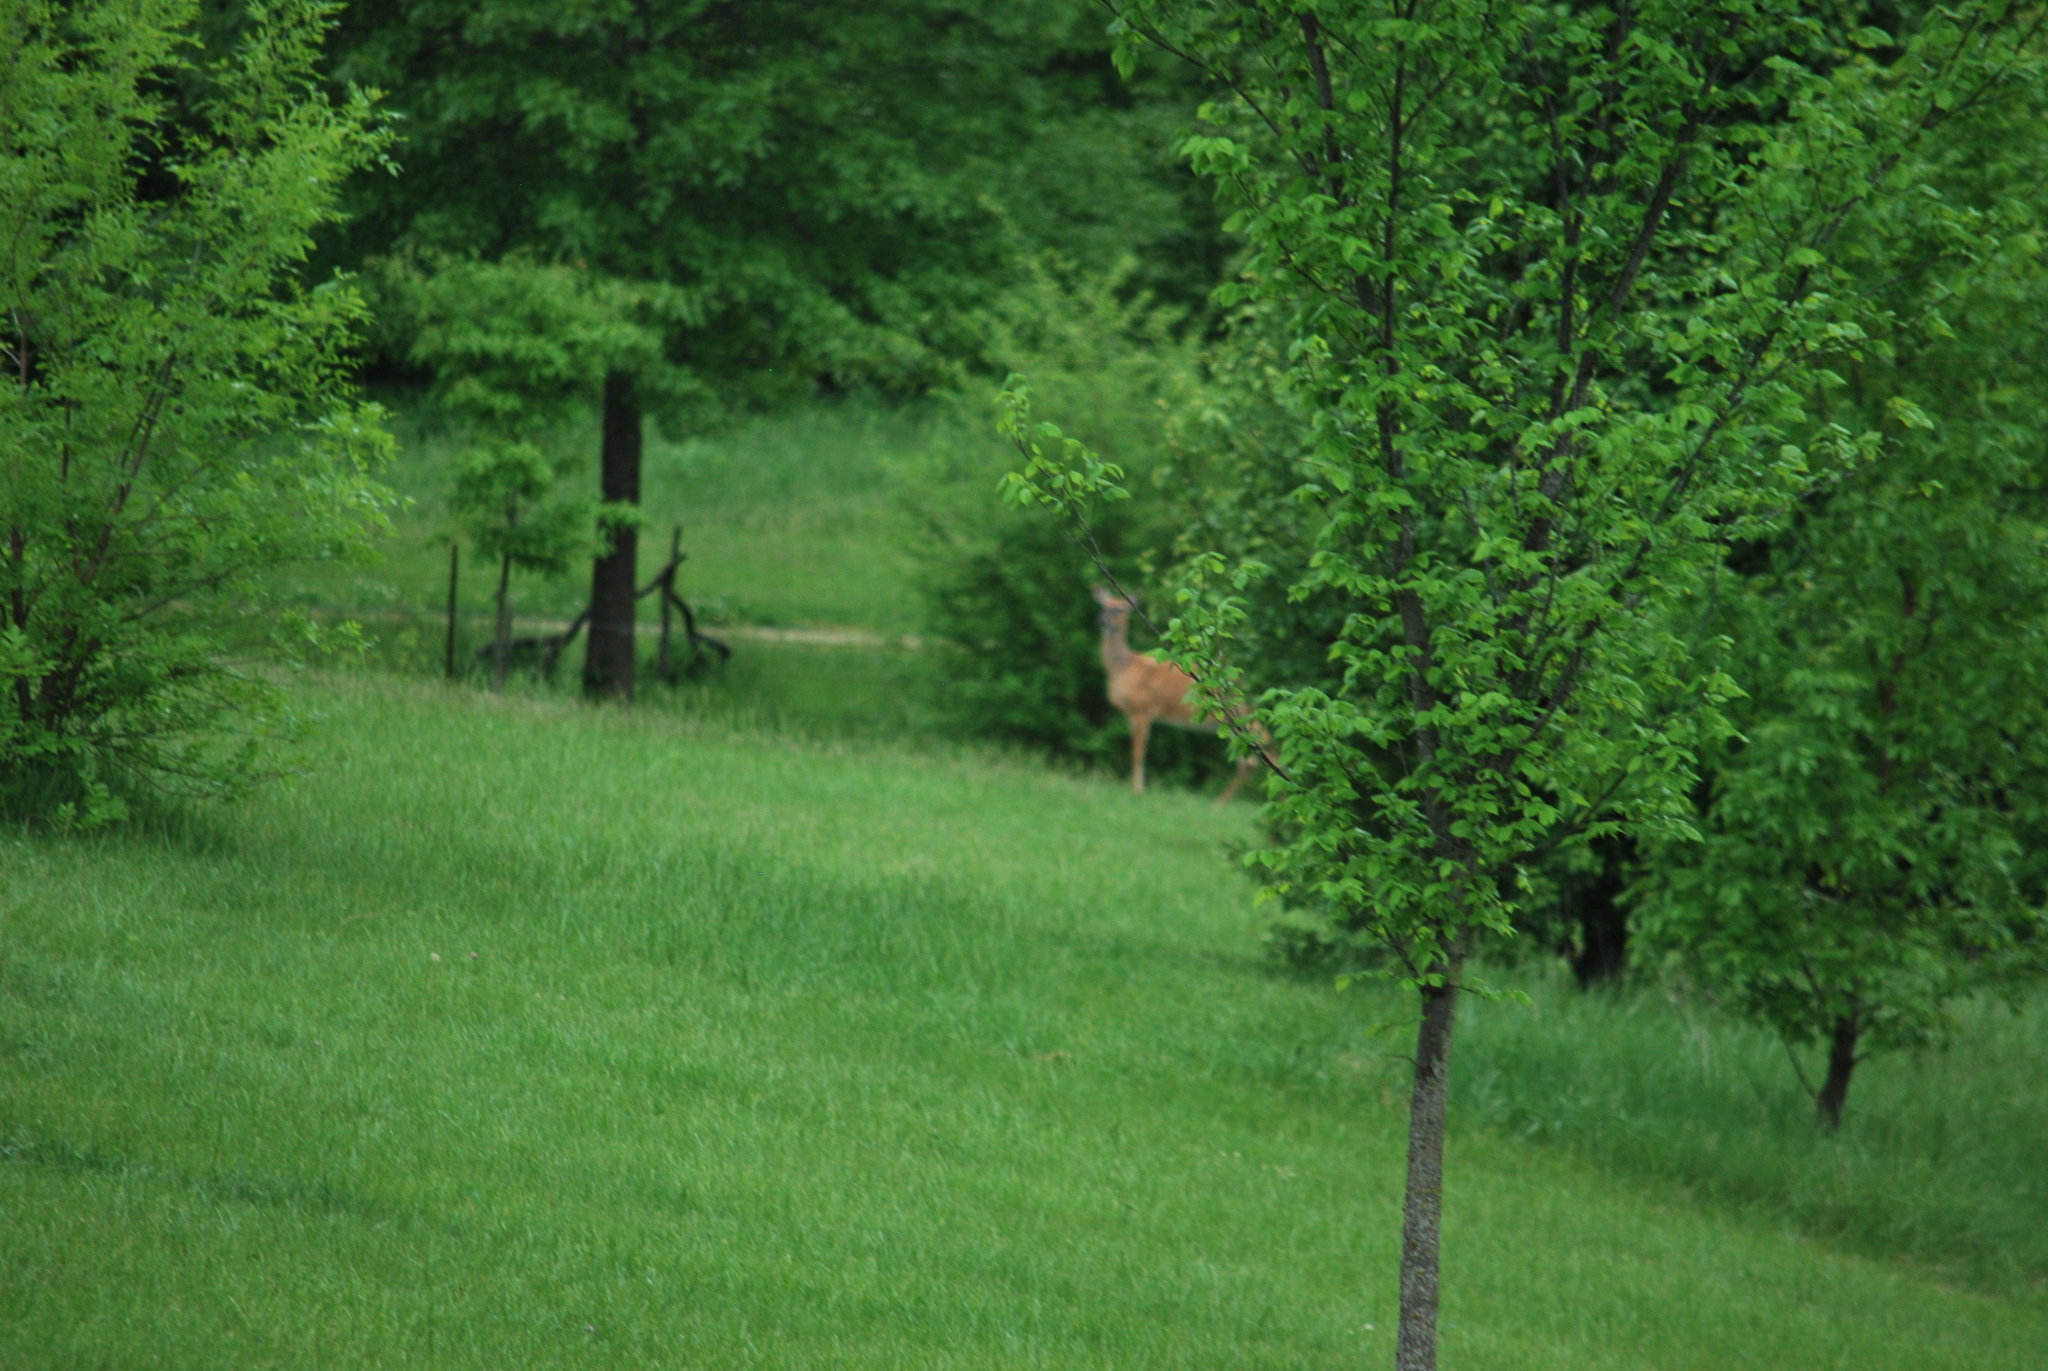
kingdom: Animalia
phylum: Chordata
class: Mammalia
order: Artiodactyla
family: Cervidae
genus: Odocoileus
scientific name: Odocoileus virginianus
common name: White-tailed deer
